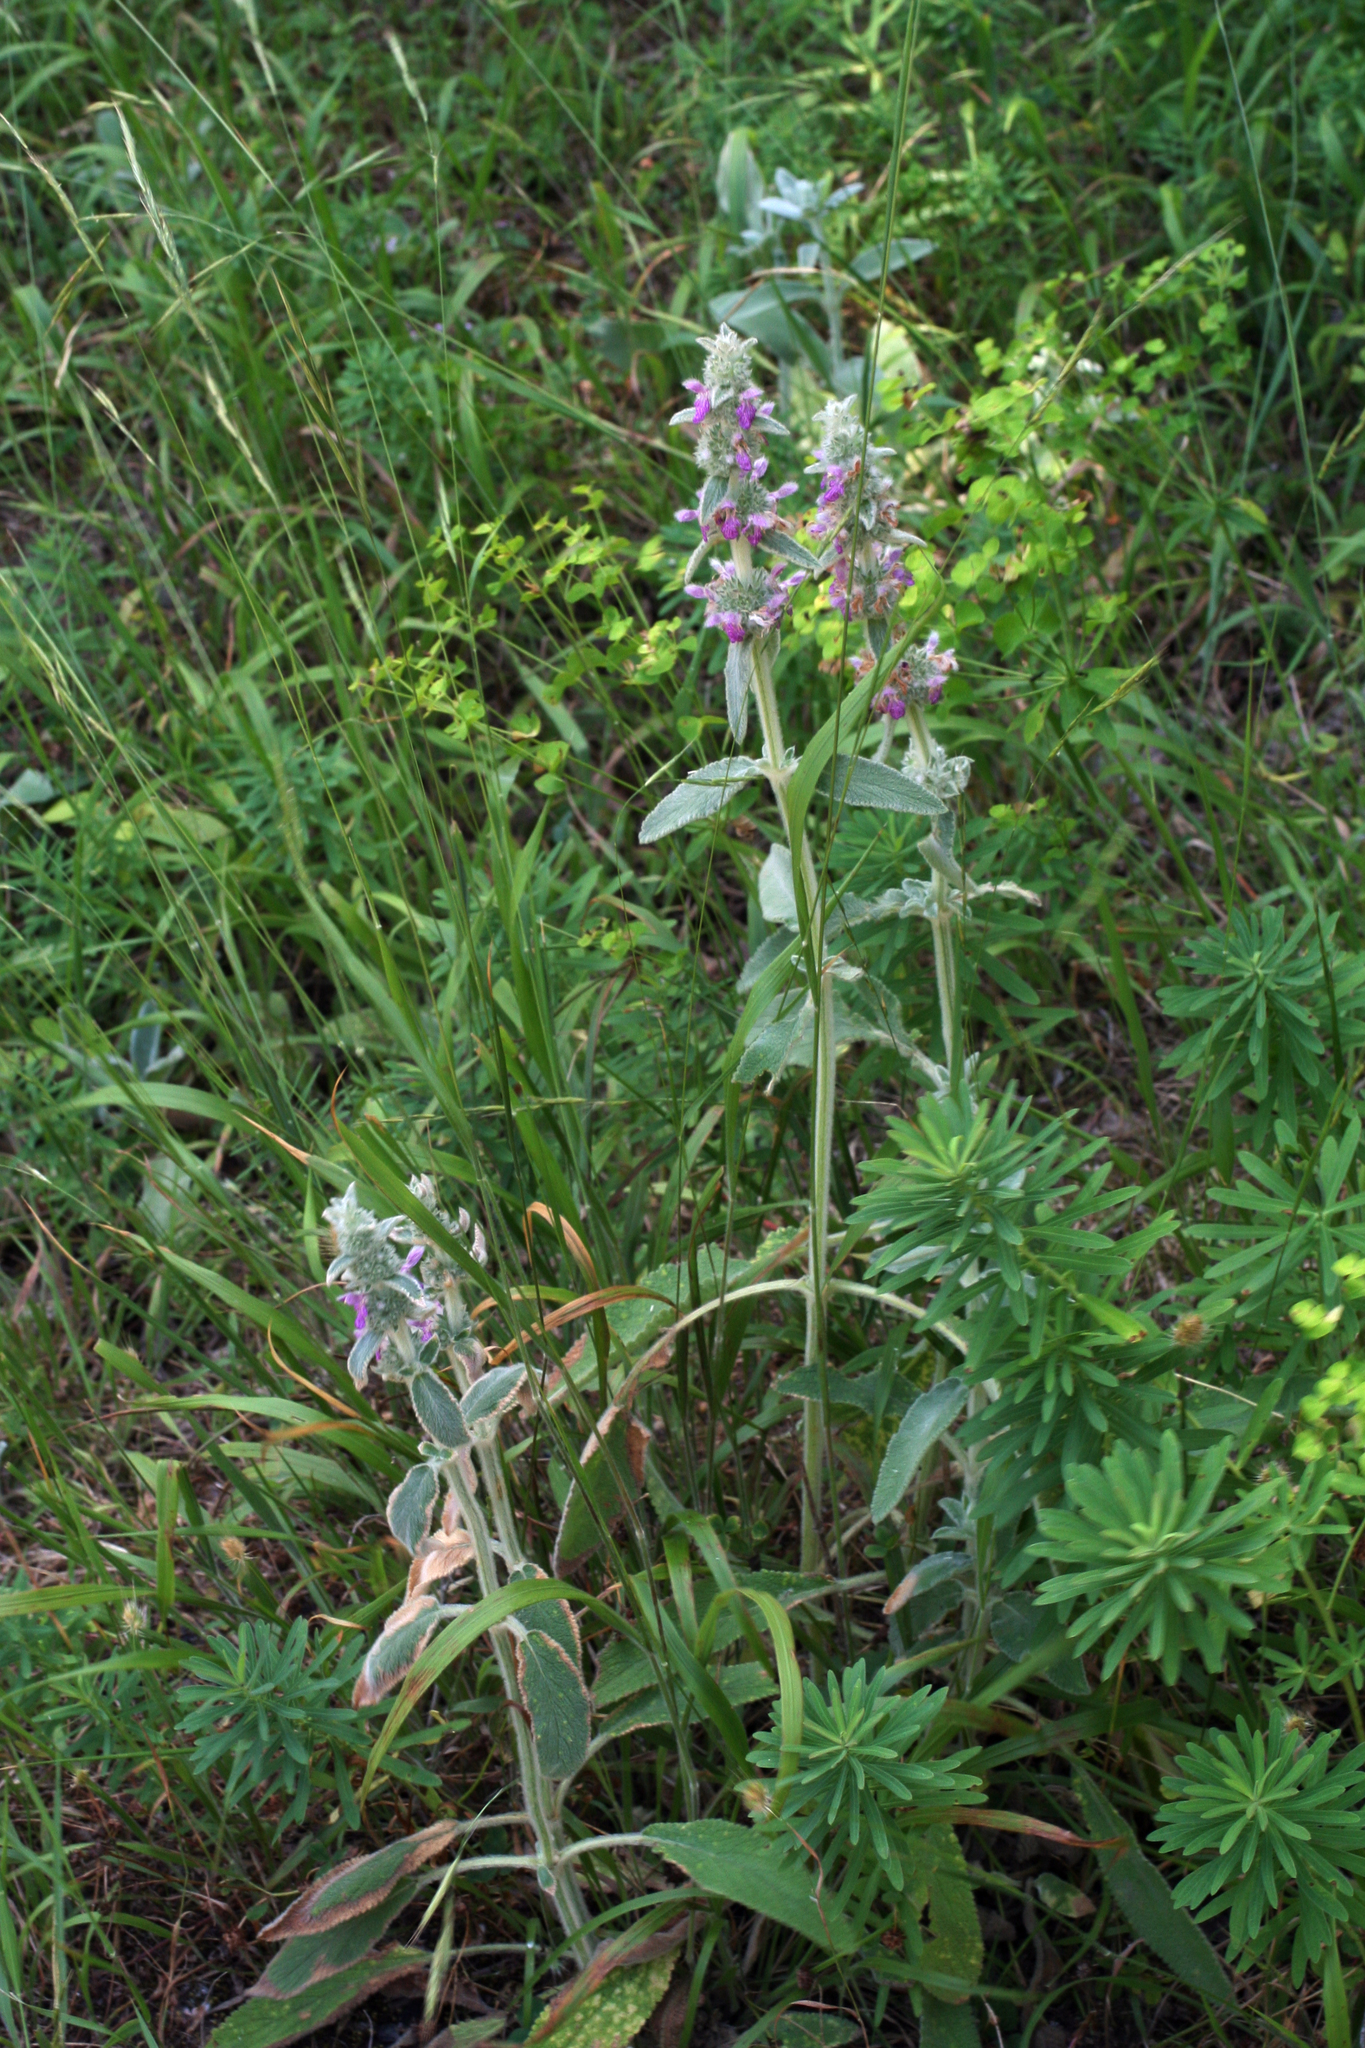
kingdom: Plantae
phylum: Tracheophyta
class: Magnoliopsida
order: Lamiales
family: Lamiaceae
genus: Stachys
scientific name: Stachys byzantina
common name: Lamb's-ear
